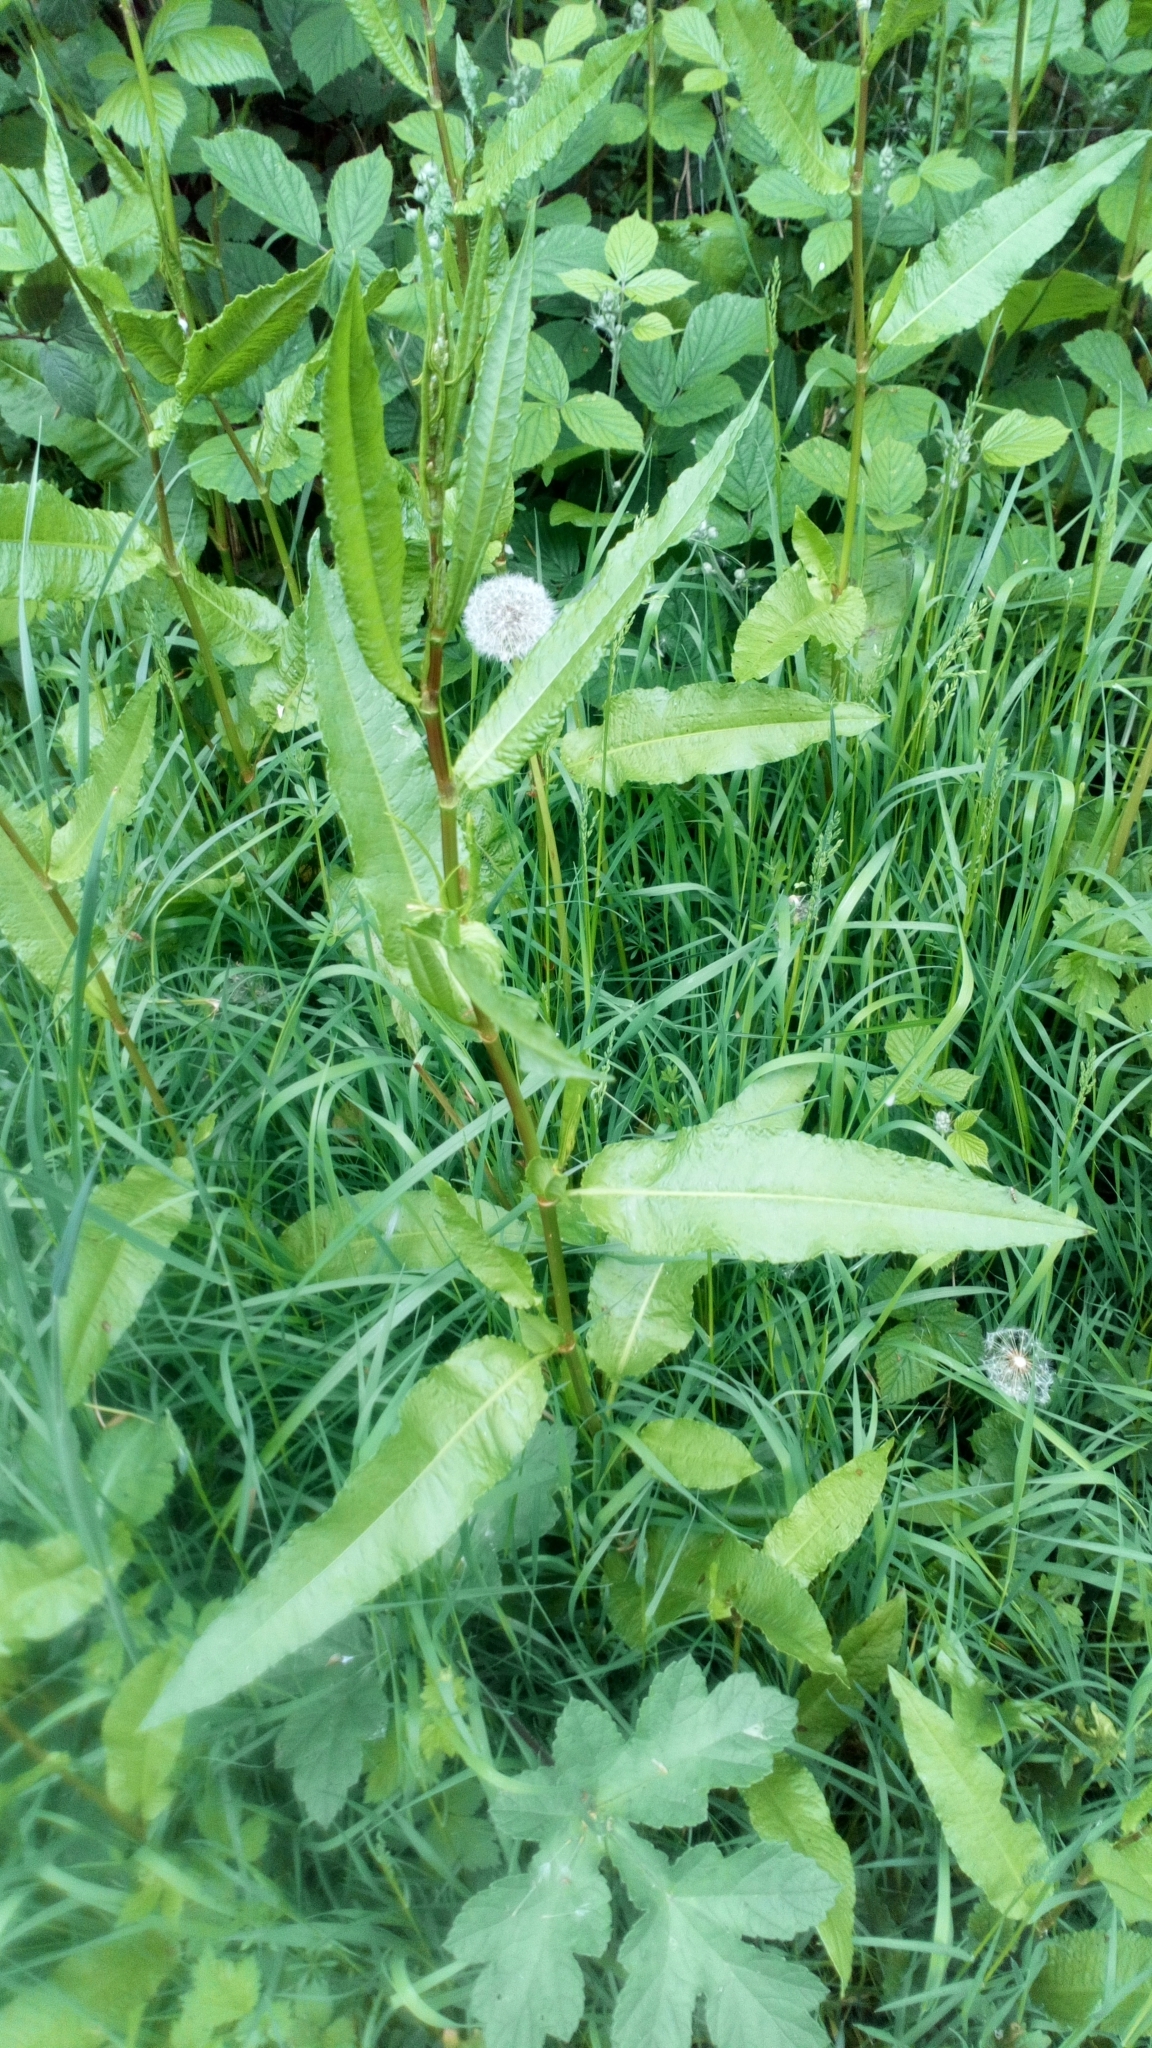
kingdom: Plantae
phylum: Tracheophyta
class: Magnoliopsida
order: Caryophyllales
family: Polygonaceae
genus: Rumex
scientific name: Rumex sanguineus
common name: Wood dock
